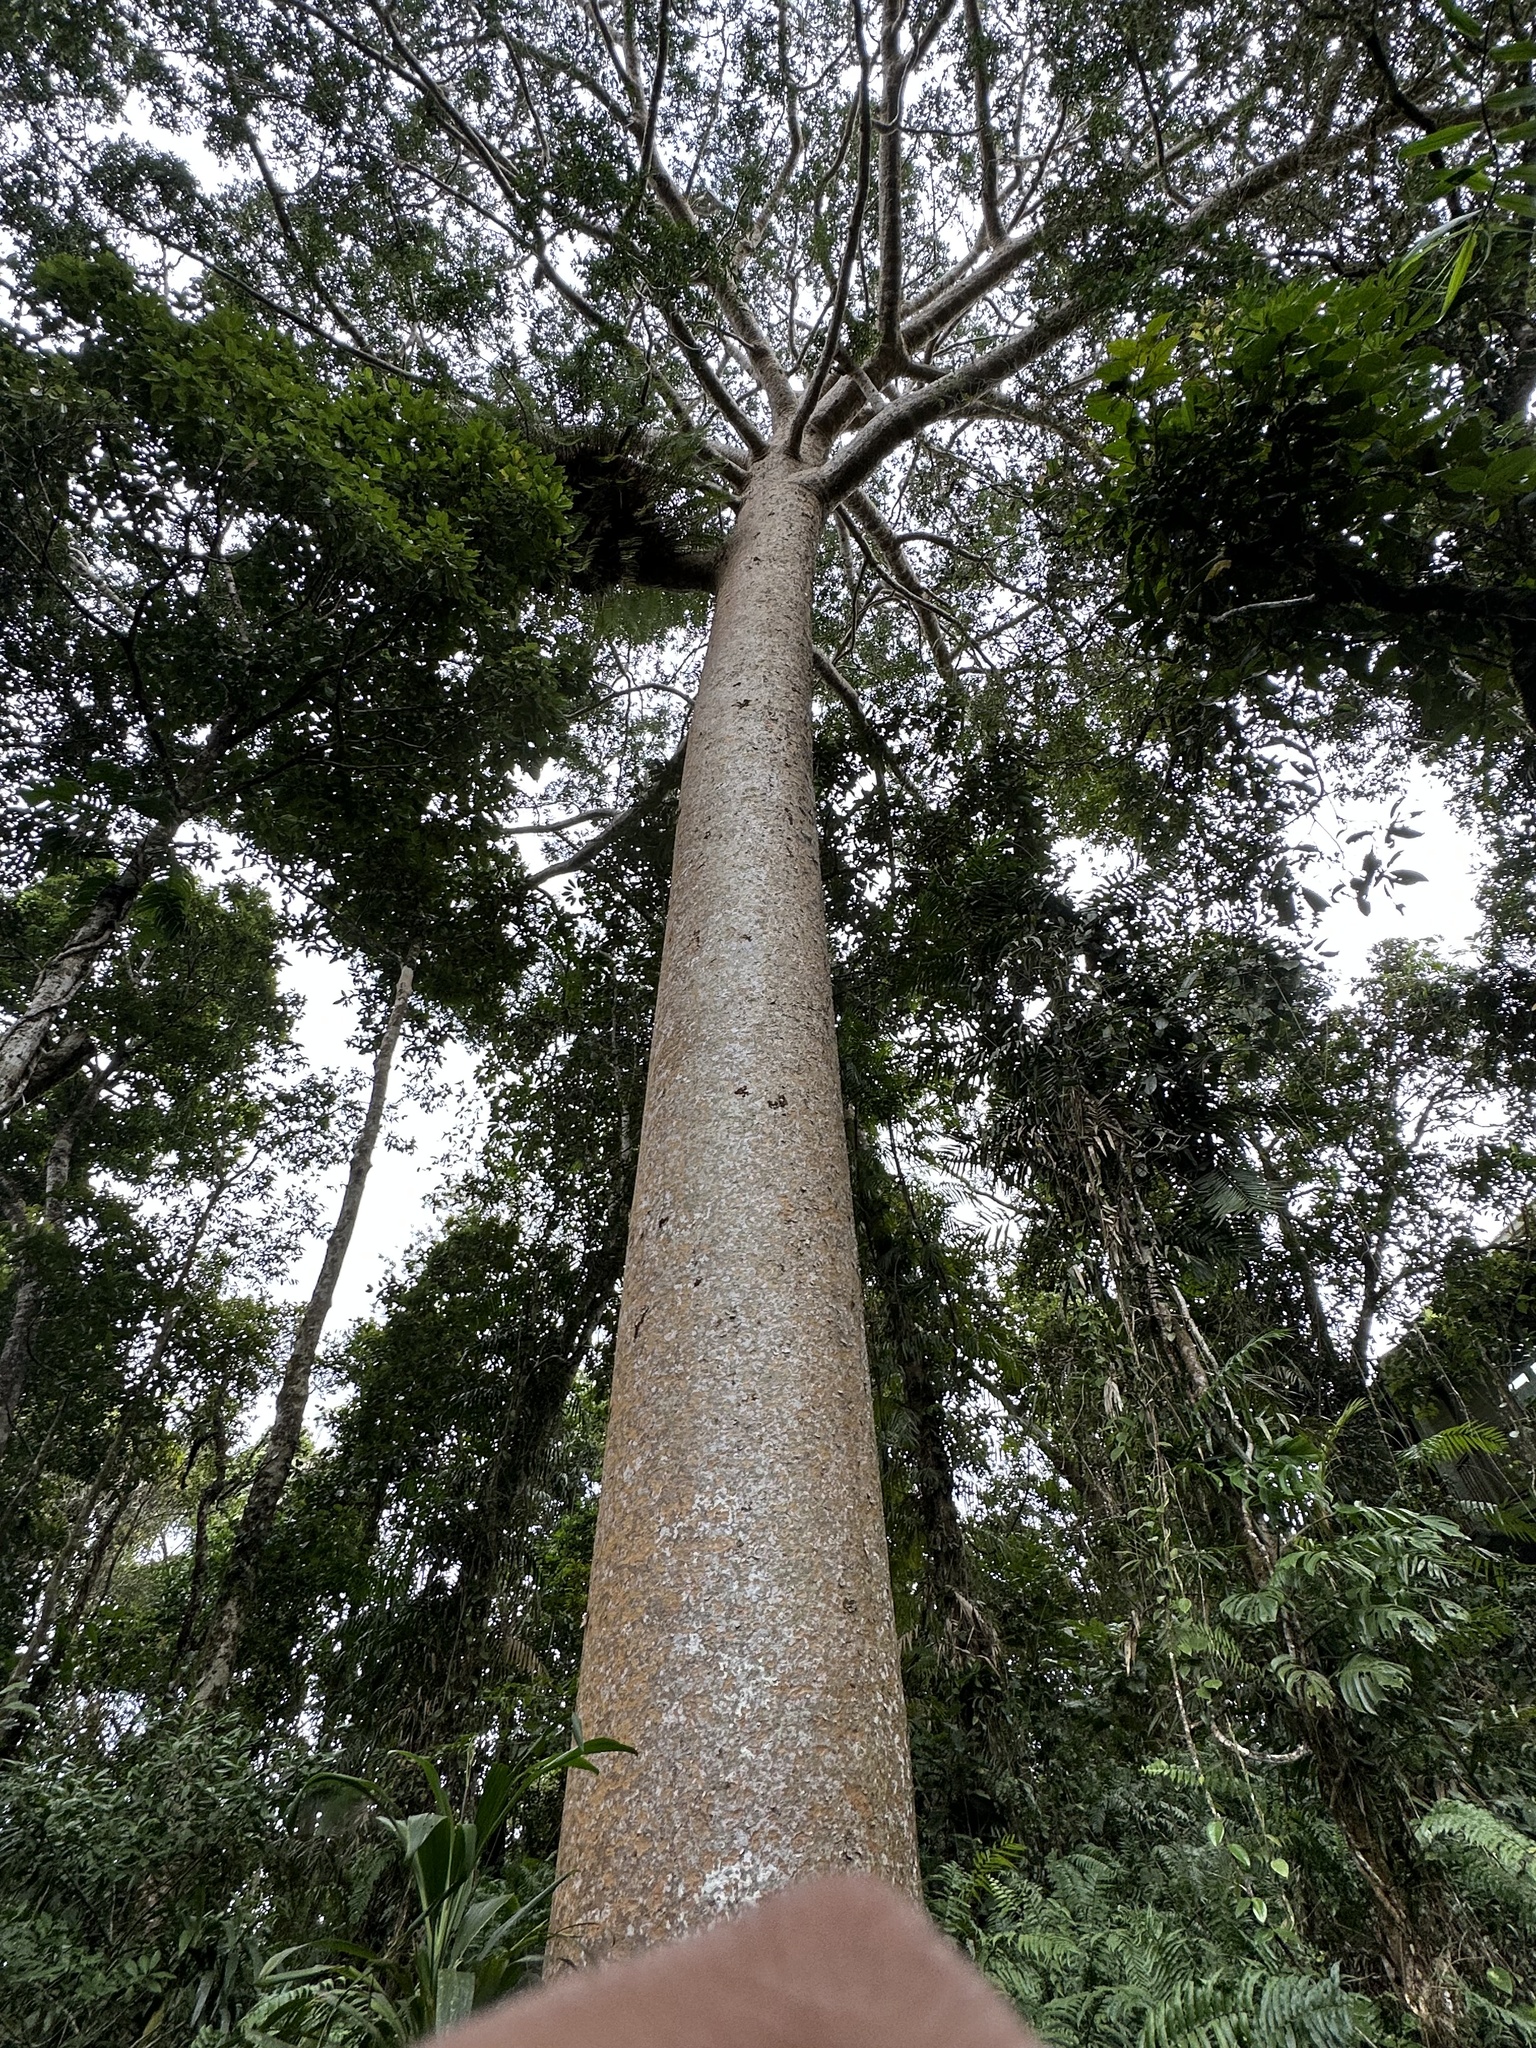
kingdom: Plantae
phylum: Tracheophyta
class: Pinopsida
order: Pinales
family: Araucariaceae
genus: Agathis
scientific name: Agathis robusta
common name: Australian-kauri
